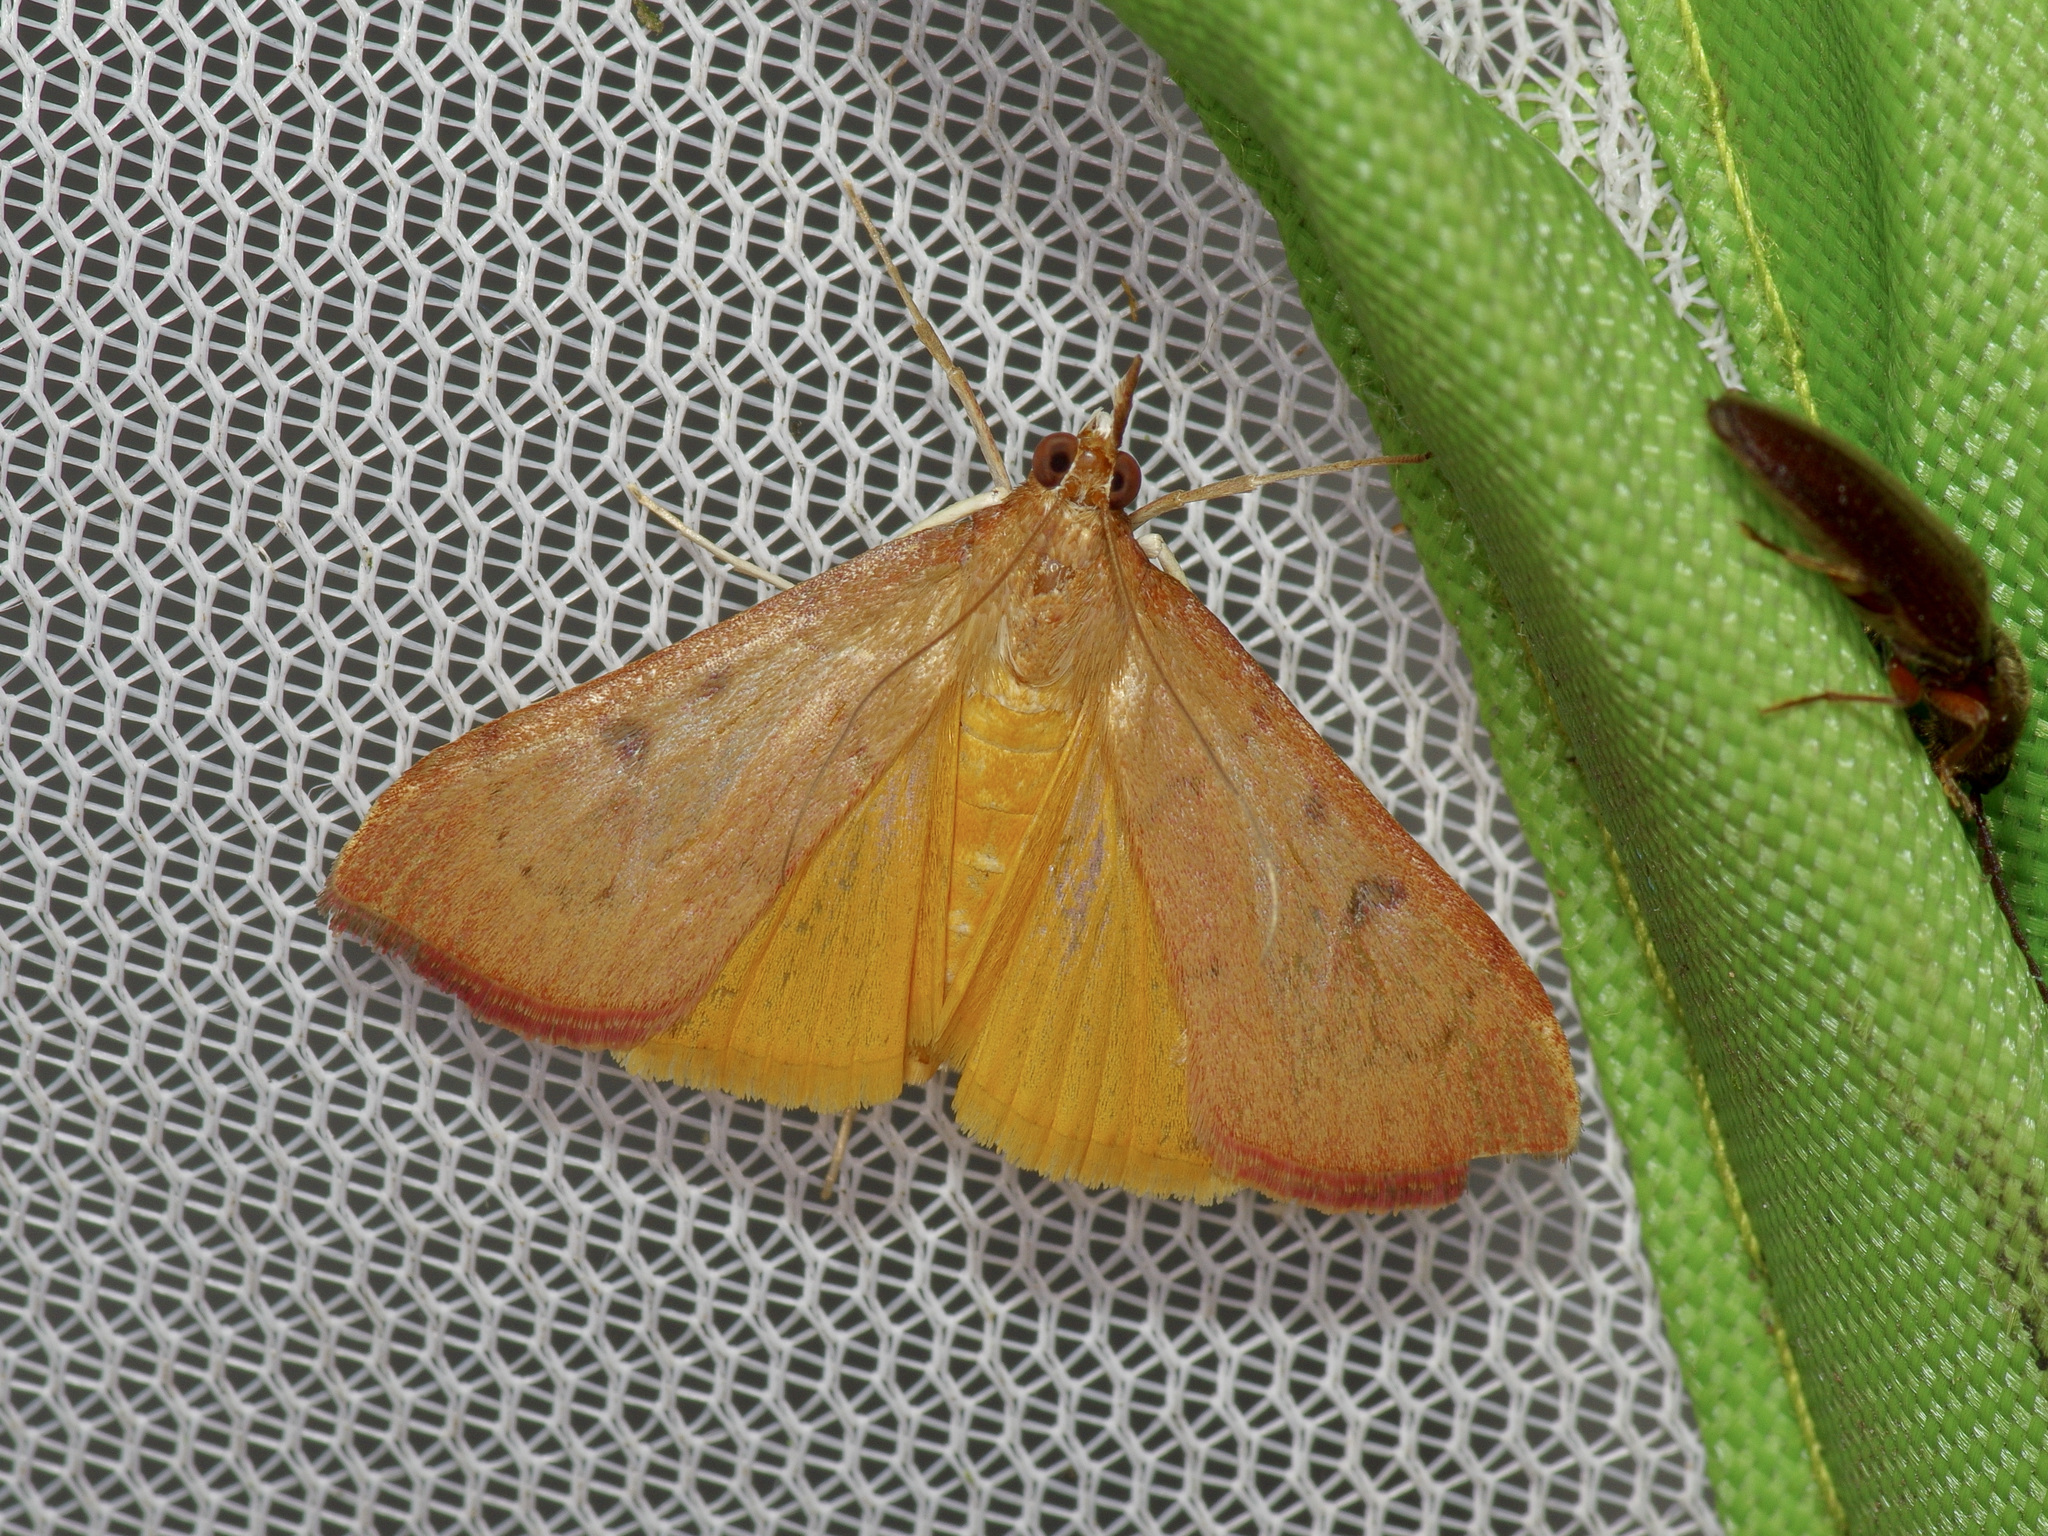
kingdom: Animalia
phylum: Arthropoda
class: Insecta
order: Lepidoptera
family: Crambidae
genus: Uresiphita
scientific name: Uresiphita reversalis
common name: Genista broom moth
